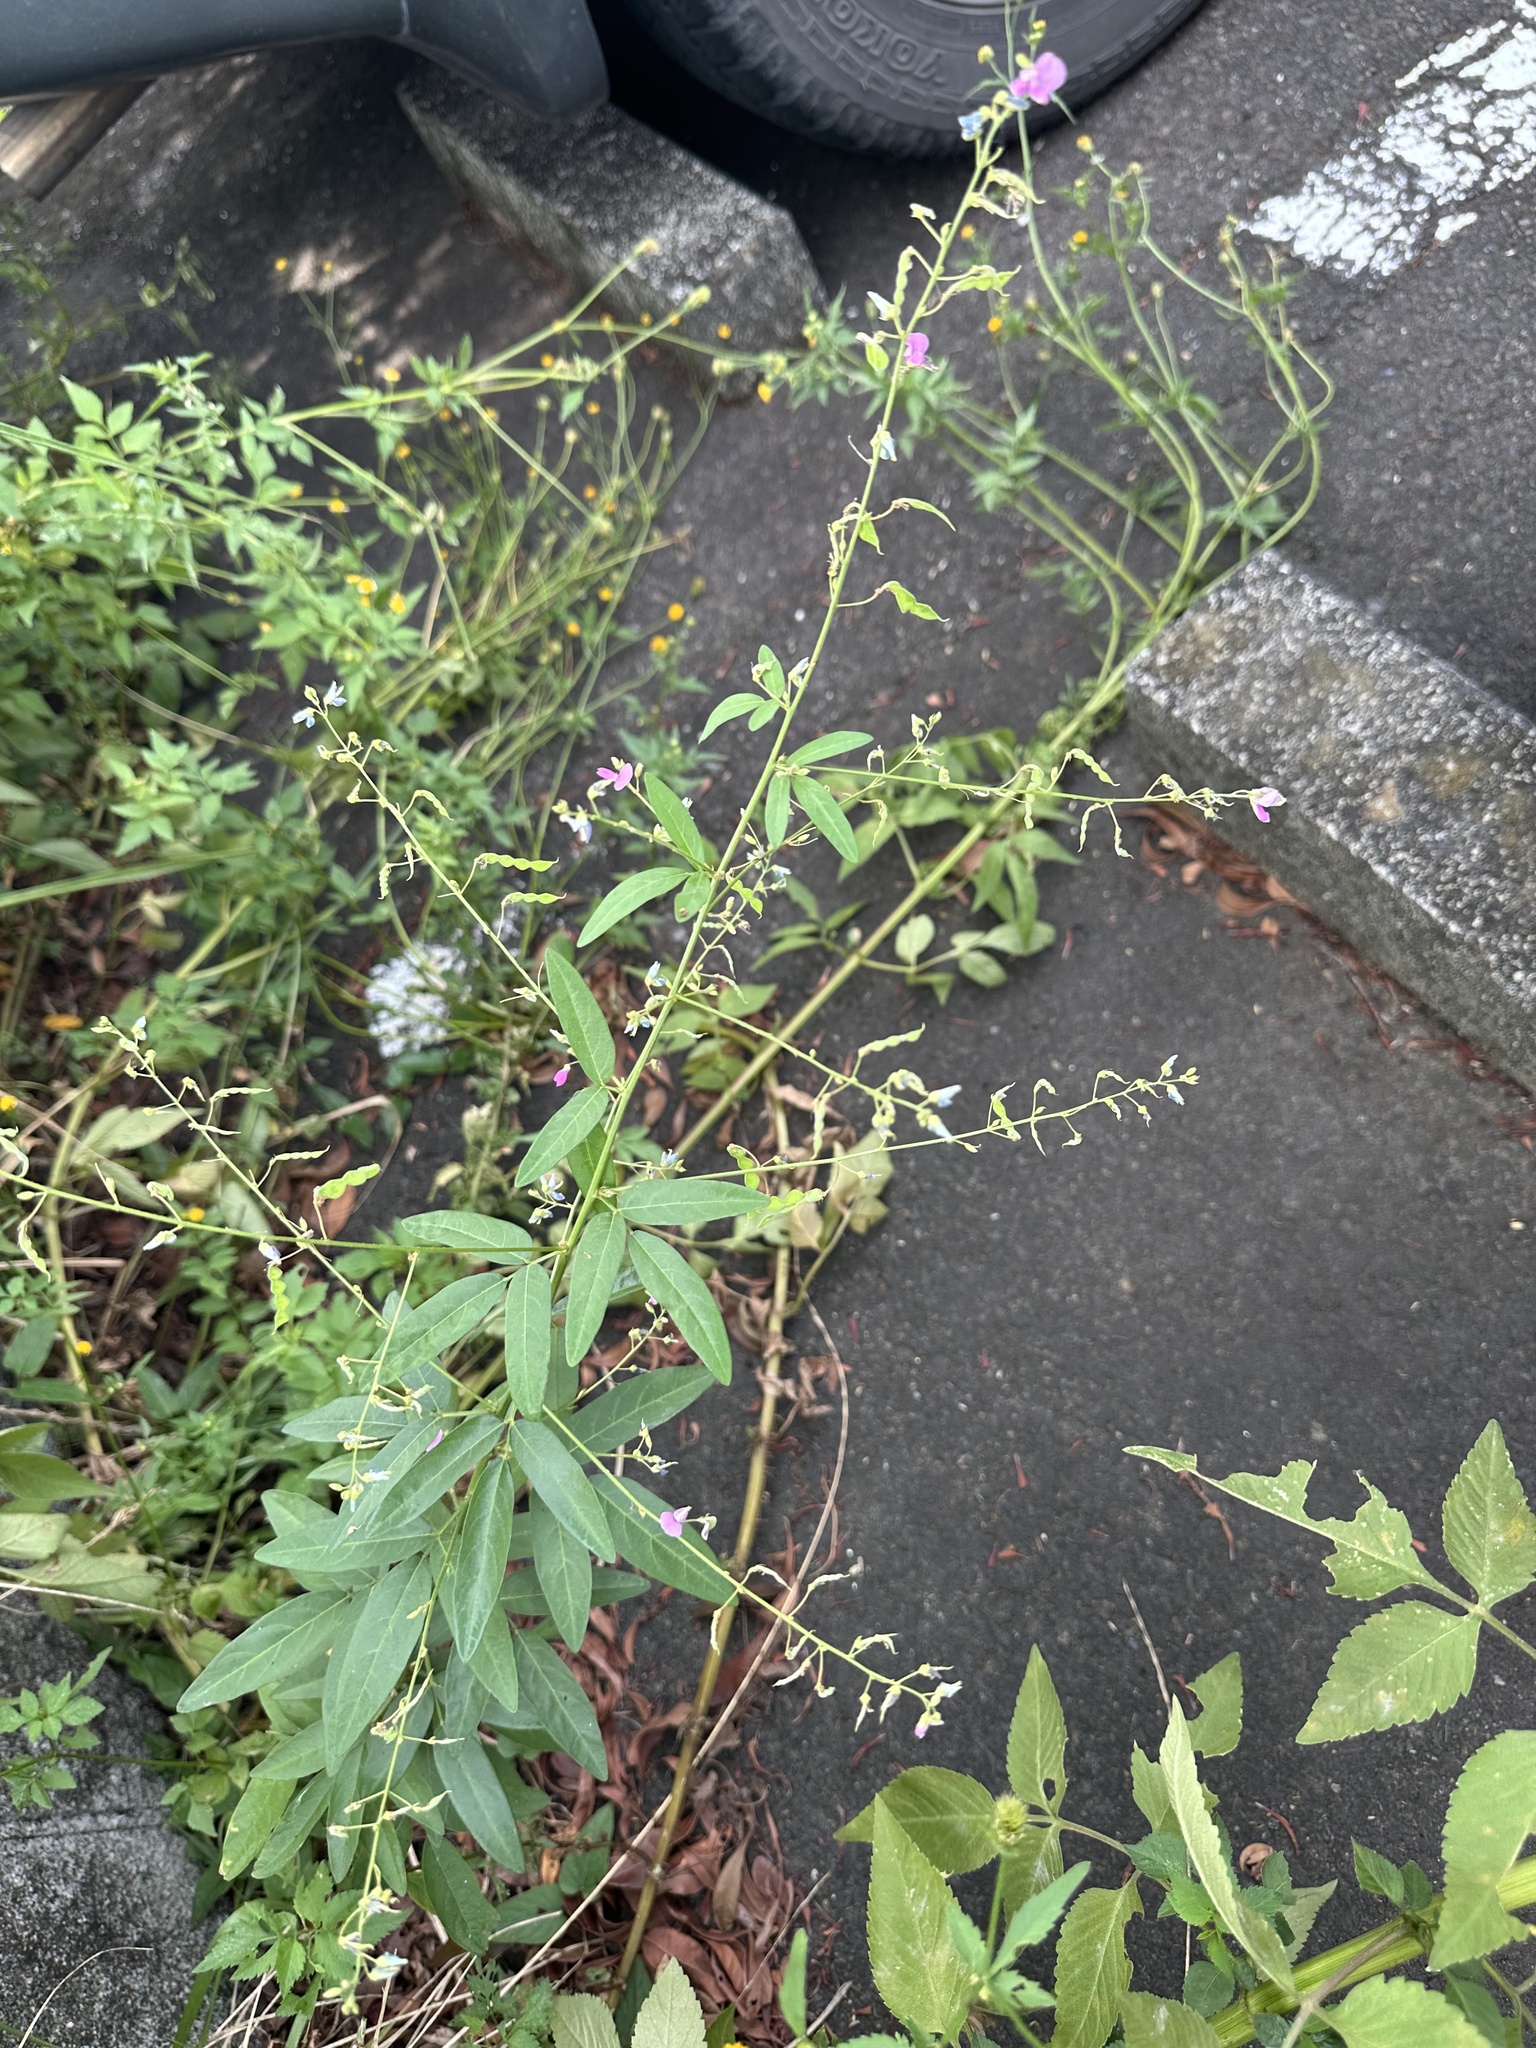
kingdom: Plantae
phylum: Tracheophyta
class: Magnoliopsida
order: Fabales
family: Fabaceae
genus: Desmodium
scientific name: Desmodium paniculatum
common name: Panicled tick-clover
